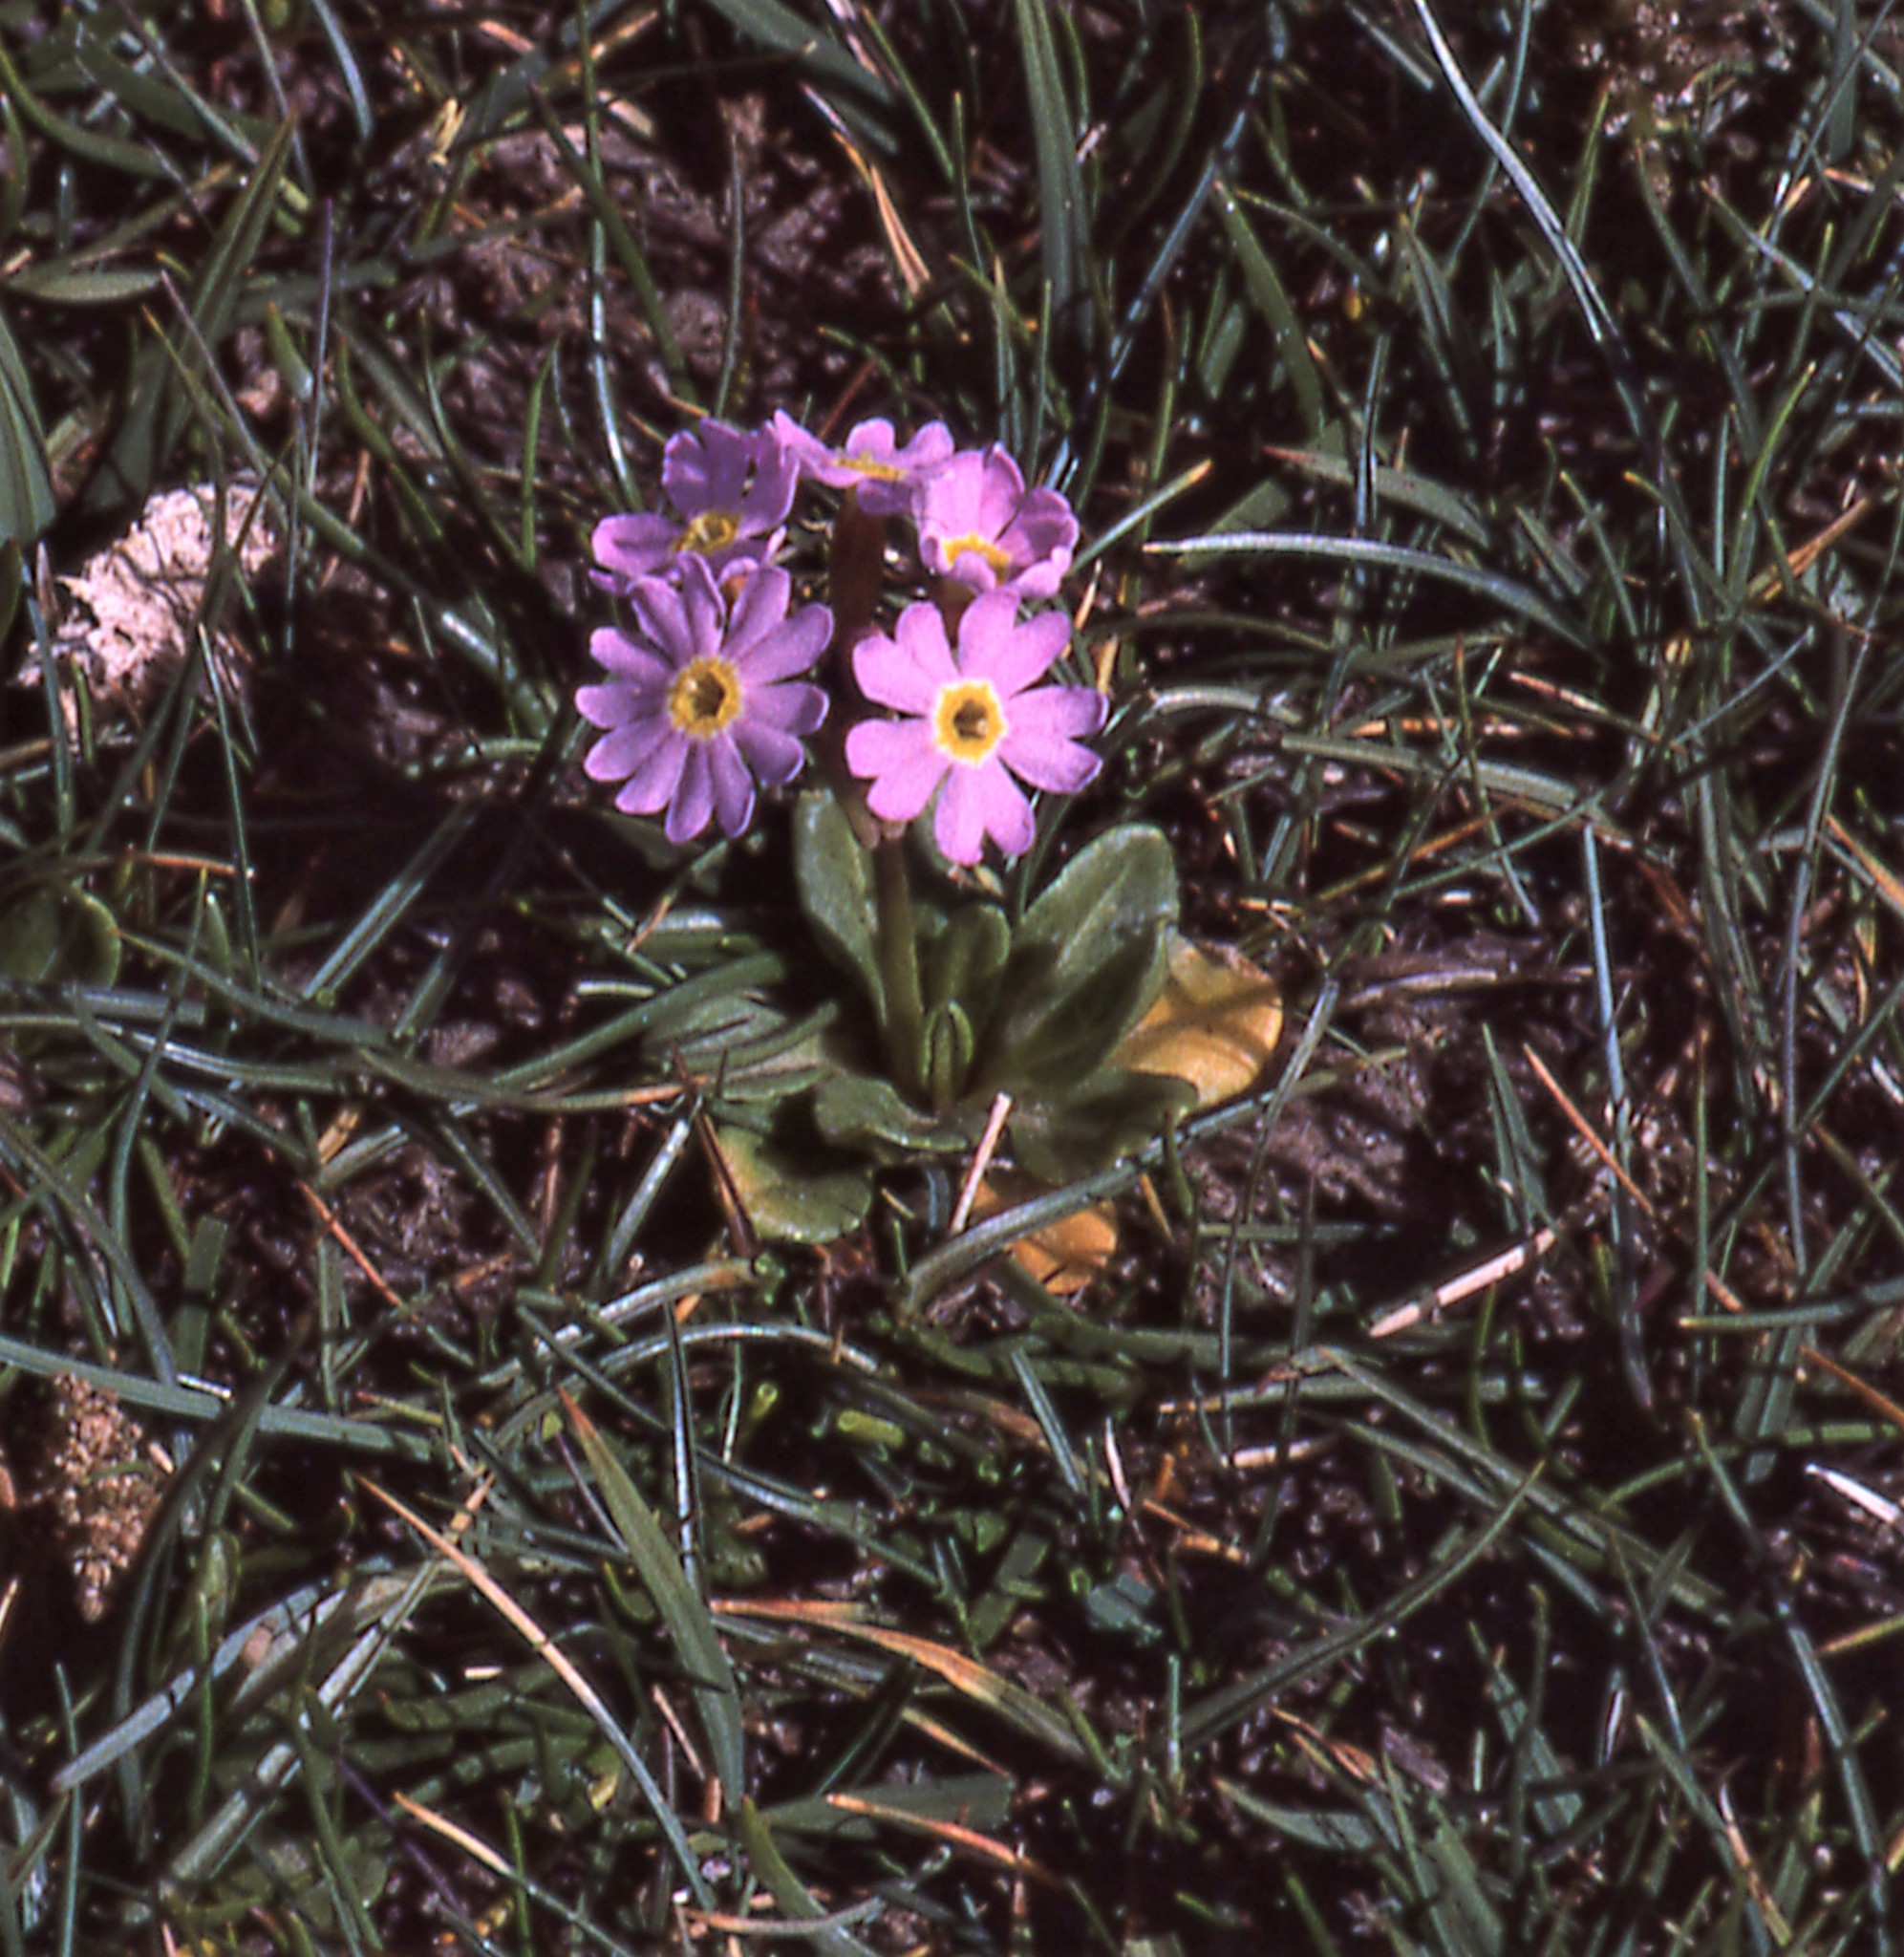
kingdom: Plantae
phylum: Tracheophyta
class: Magnoliopsida
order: Ericales
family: Primulaceae
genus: Primula
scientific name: Primula fasciculata
